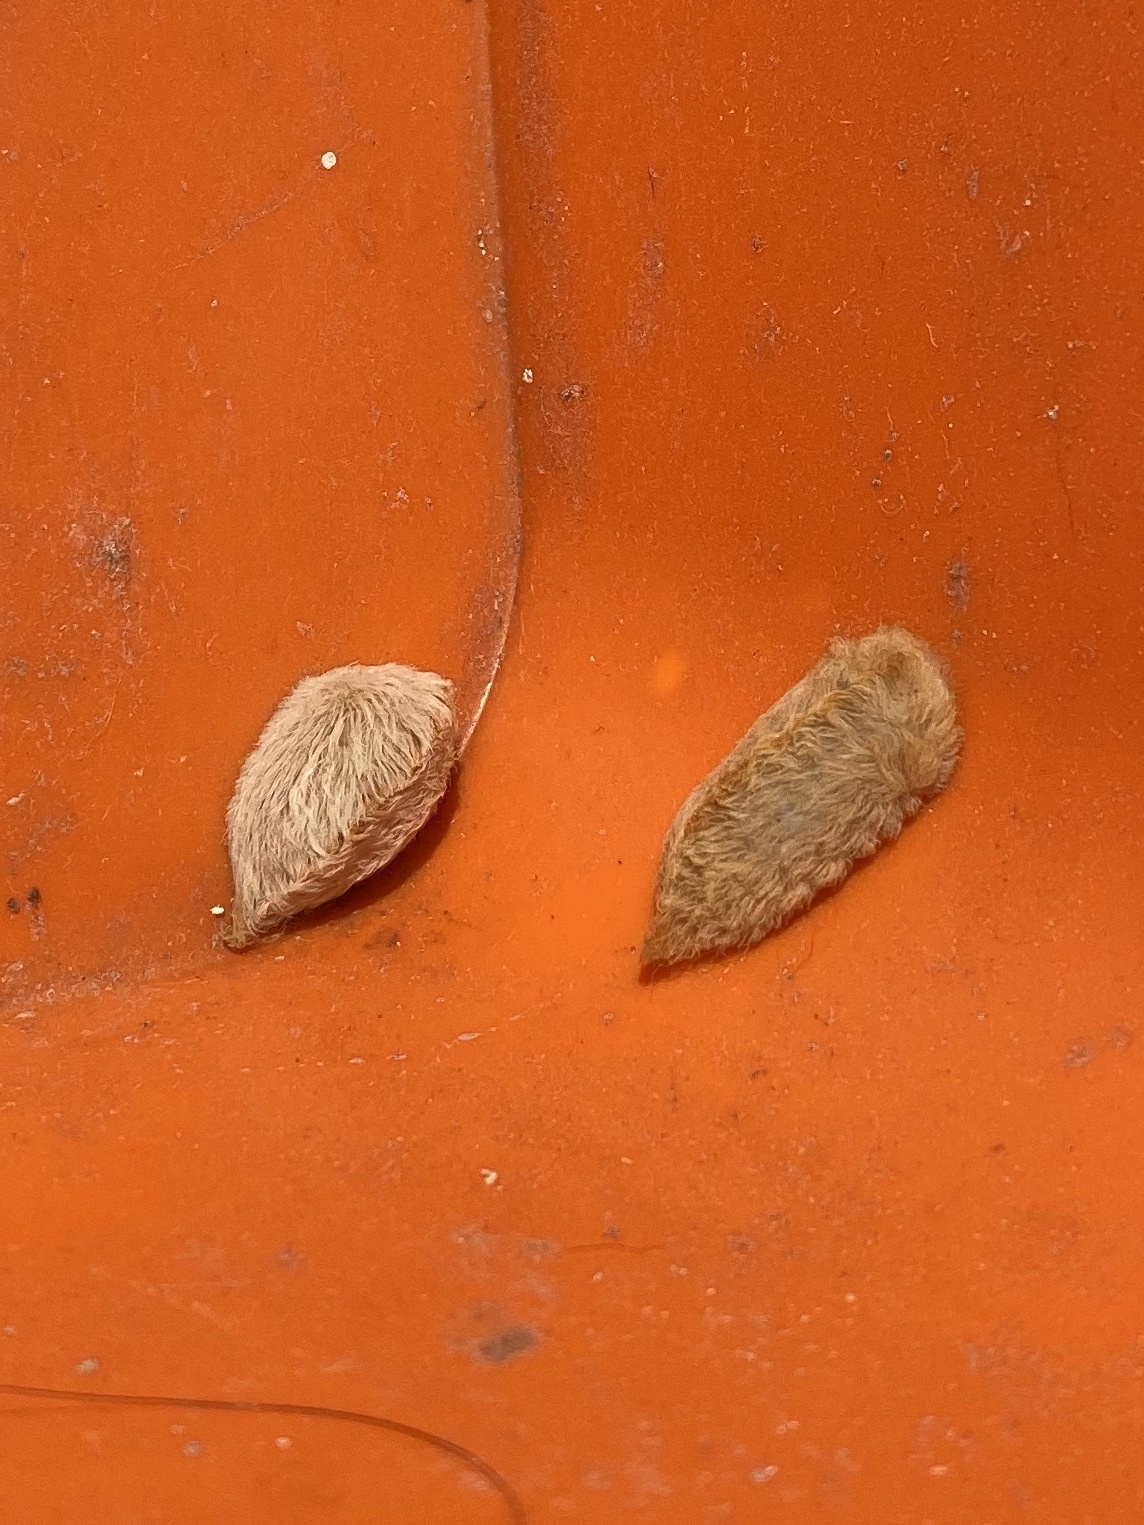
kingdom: Animalia
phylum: Arthropoda
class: Insecta
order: Lepidoptera
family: Megalopygidae
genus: Megalopyge
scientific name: Megalopyge opercularis
